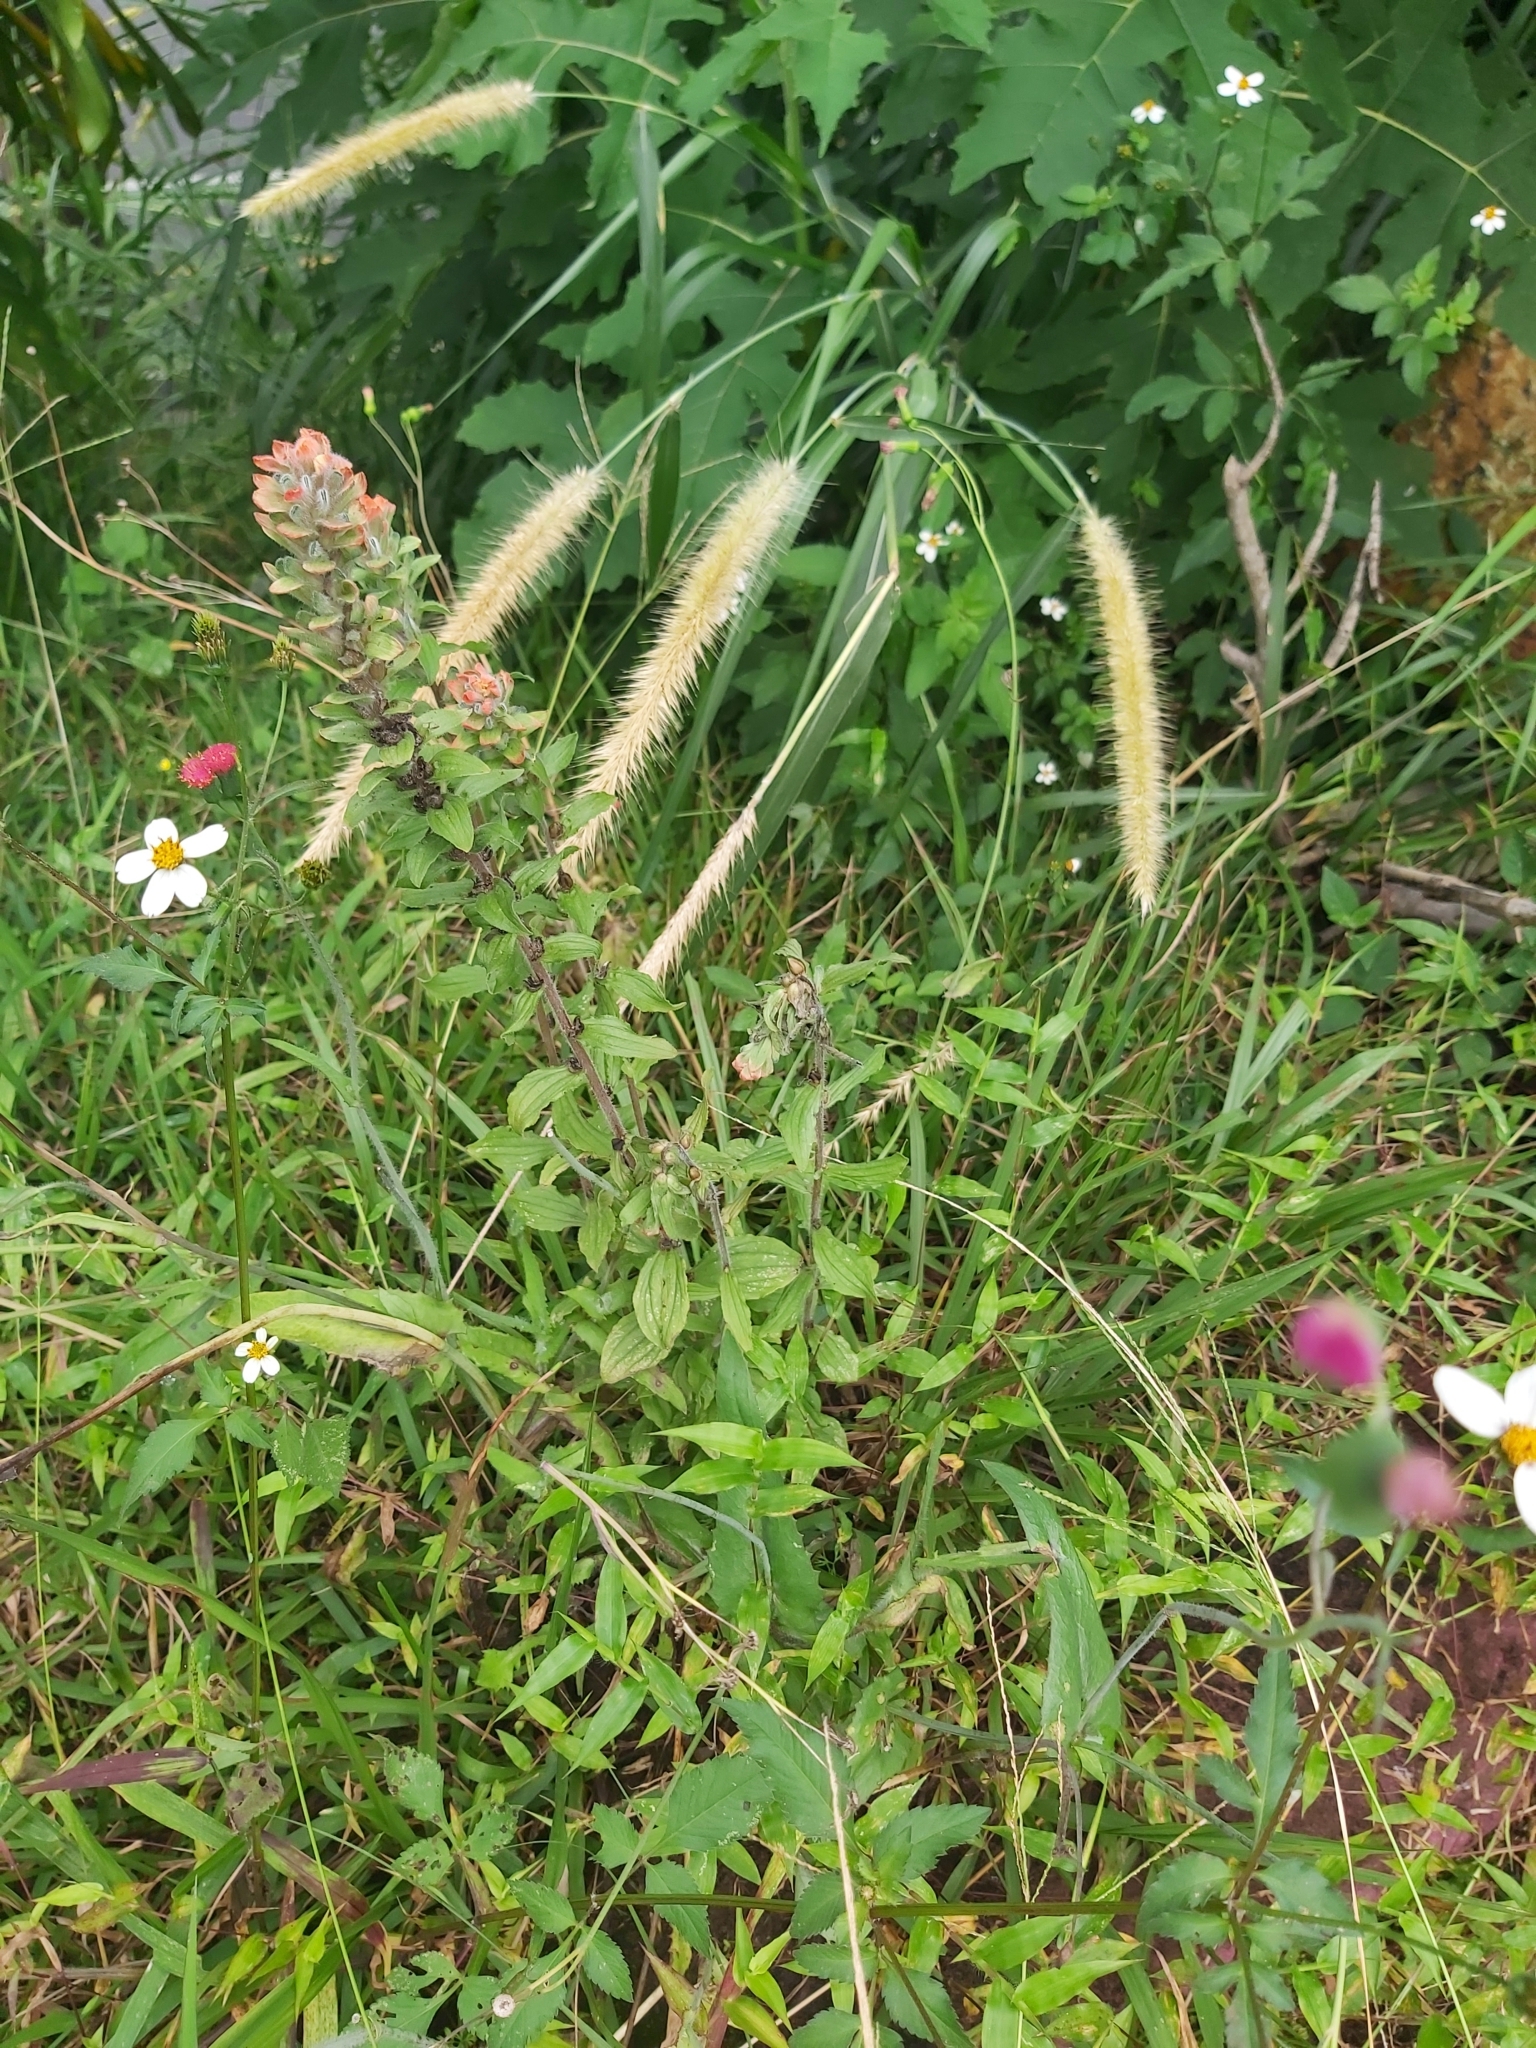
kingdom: Plantae
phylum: Tracheophyta
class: Magnoliopsida
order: Lamiales
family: Orobanchaceae
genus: Castilleja
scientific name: Castilleja arvensis
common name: Indian paintbrush
